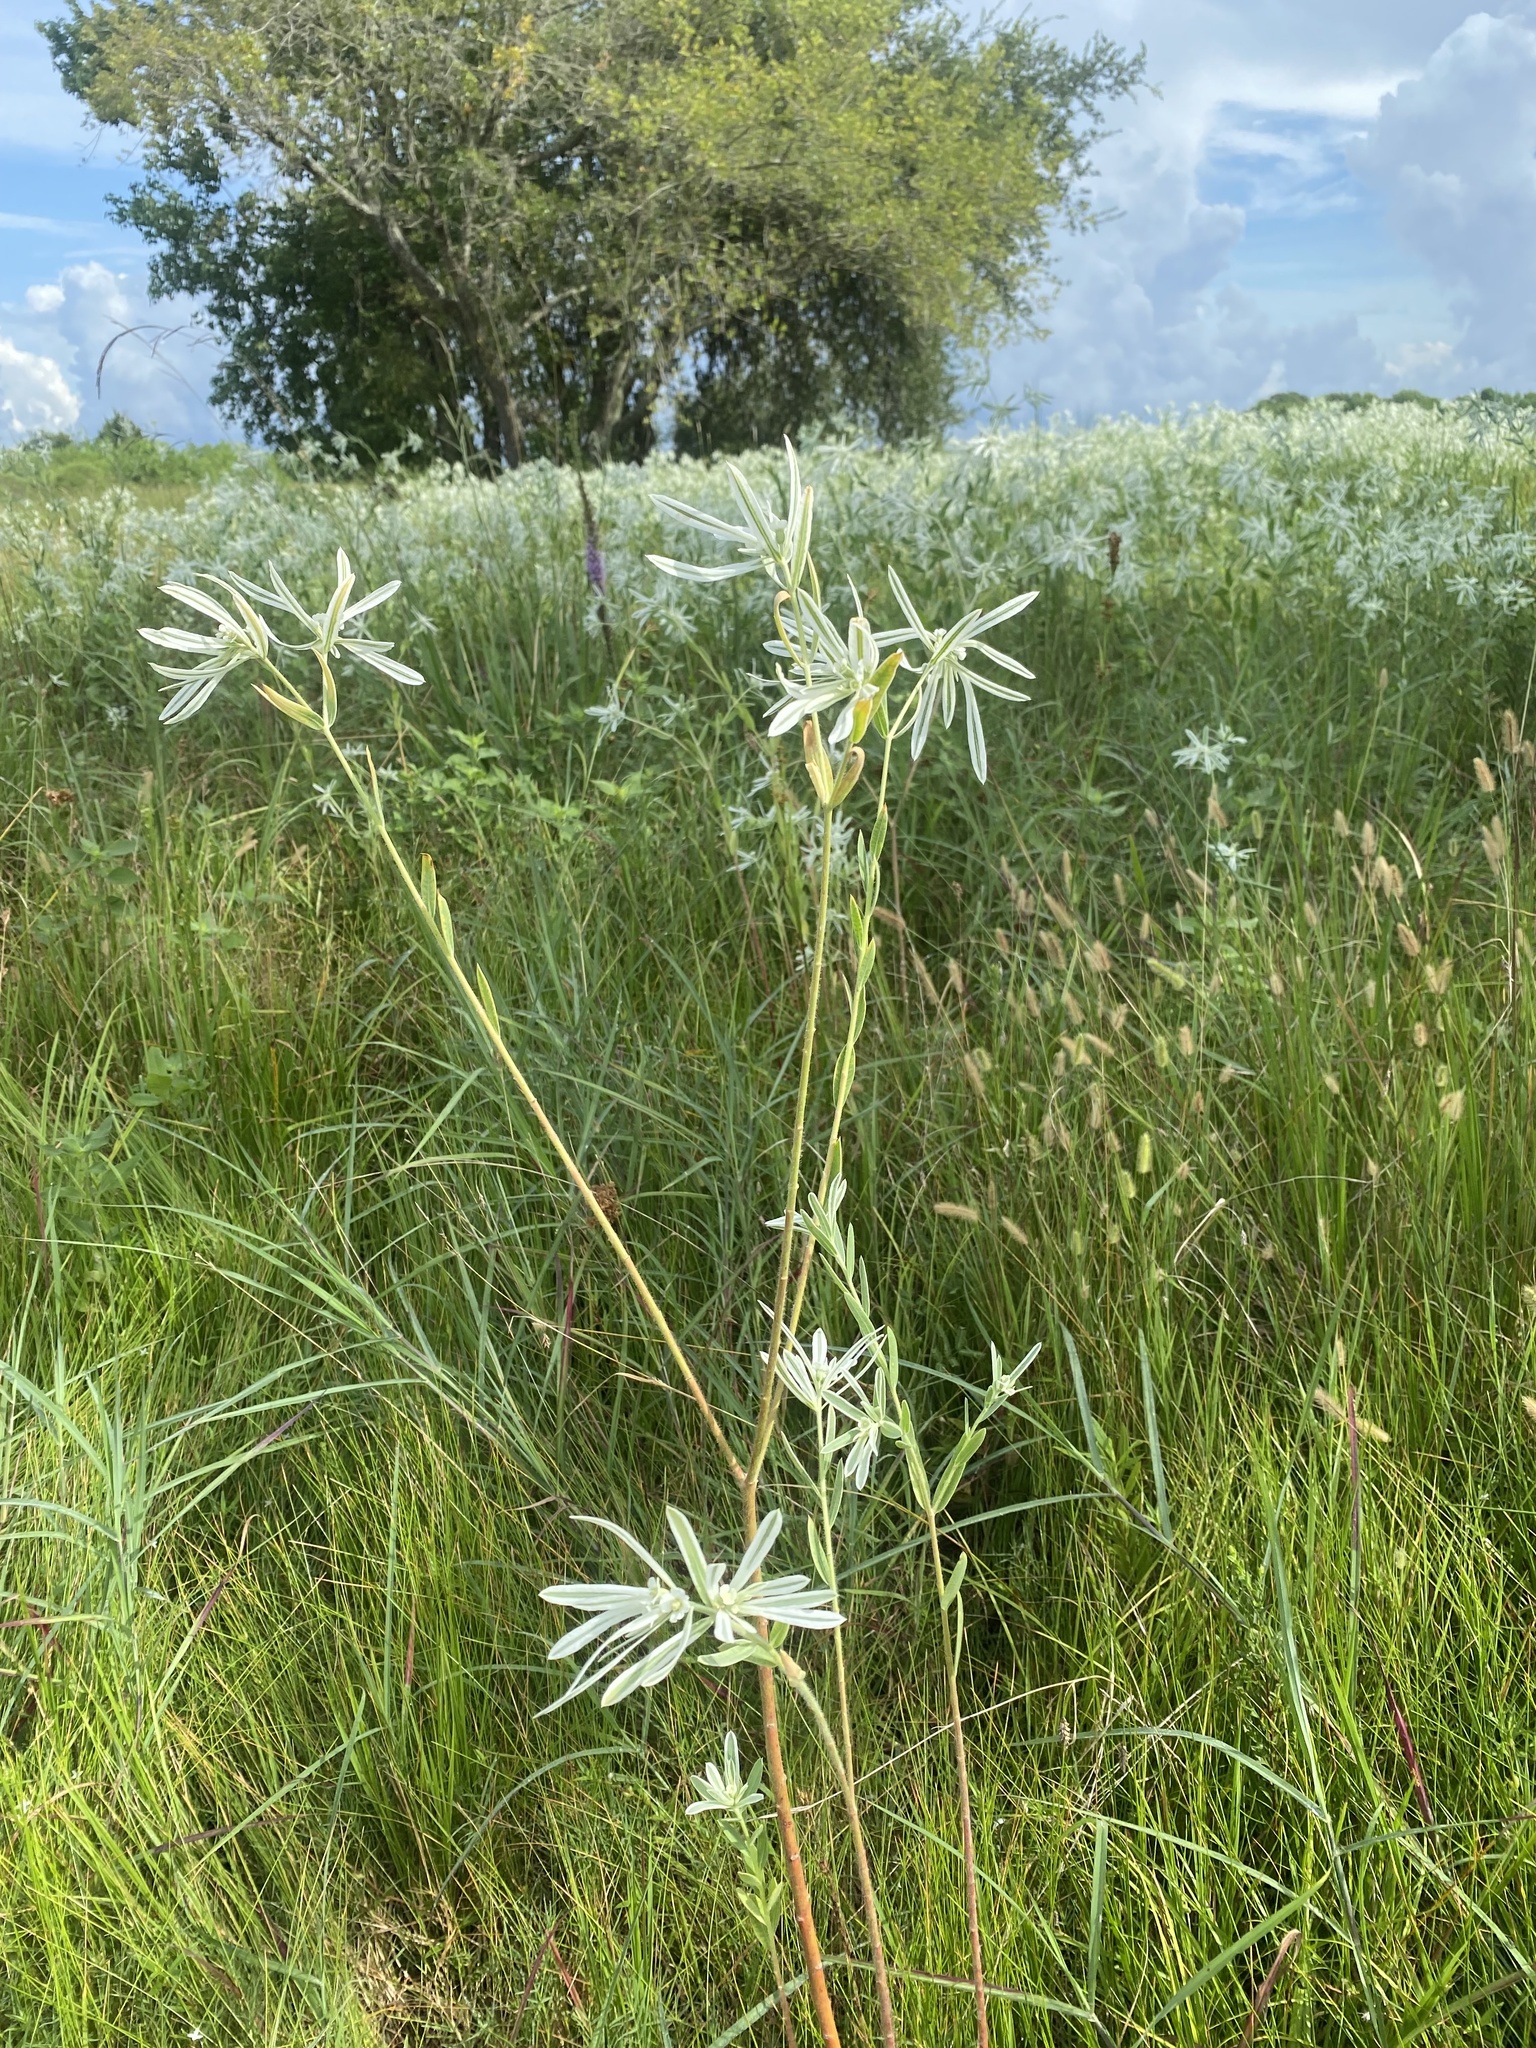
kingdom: Plantae
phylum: Tracheophyta
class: Magnoliopsida
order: Malpighiales
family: Euphorbiaceae
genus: Euphorbia
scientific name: Euphorbia bicolor
